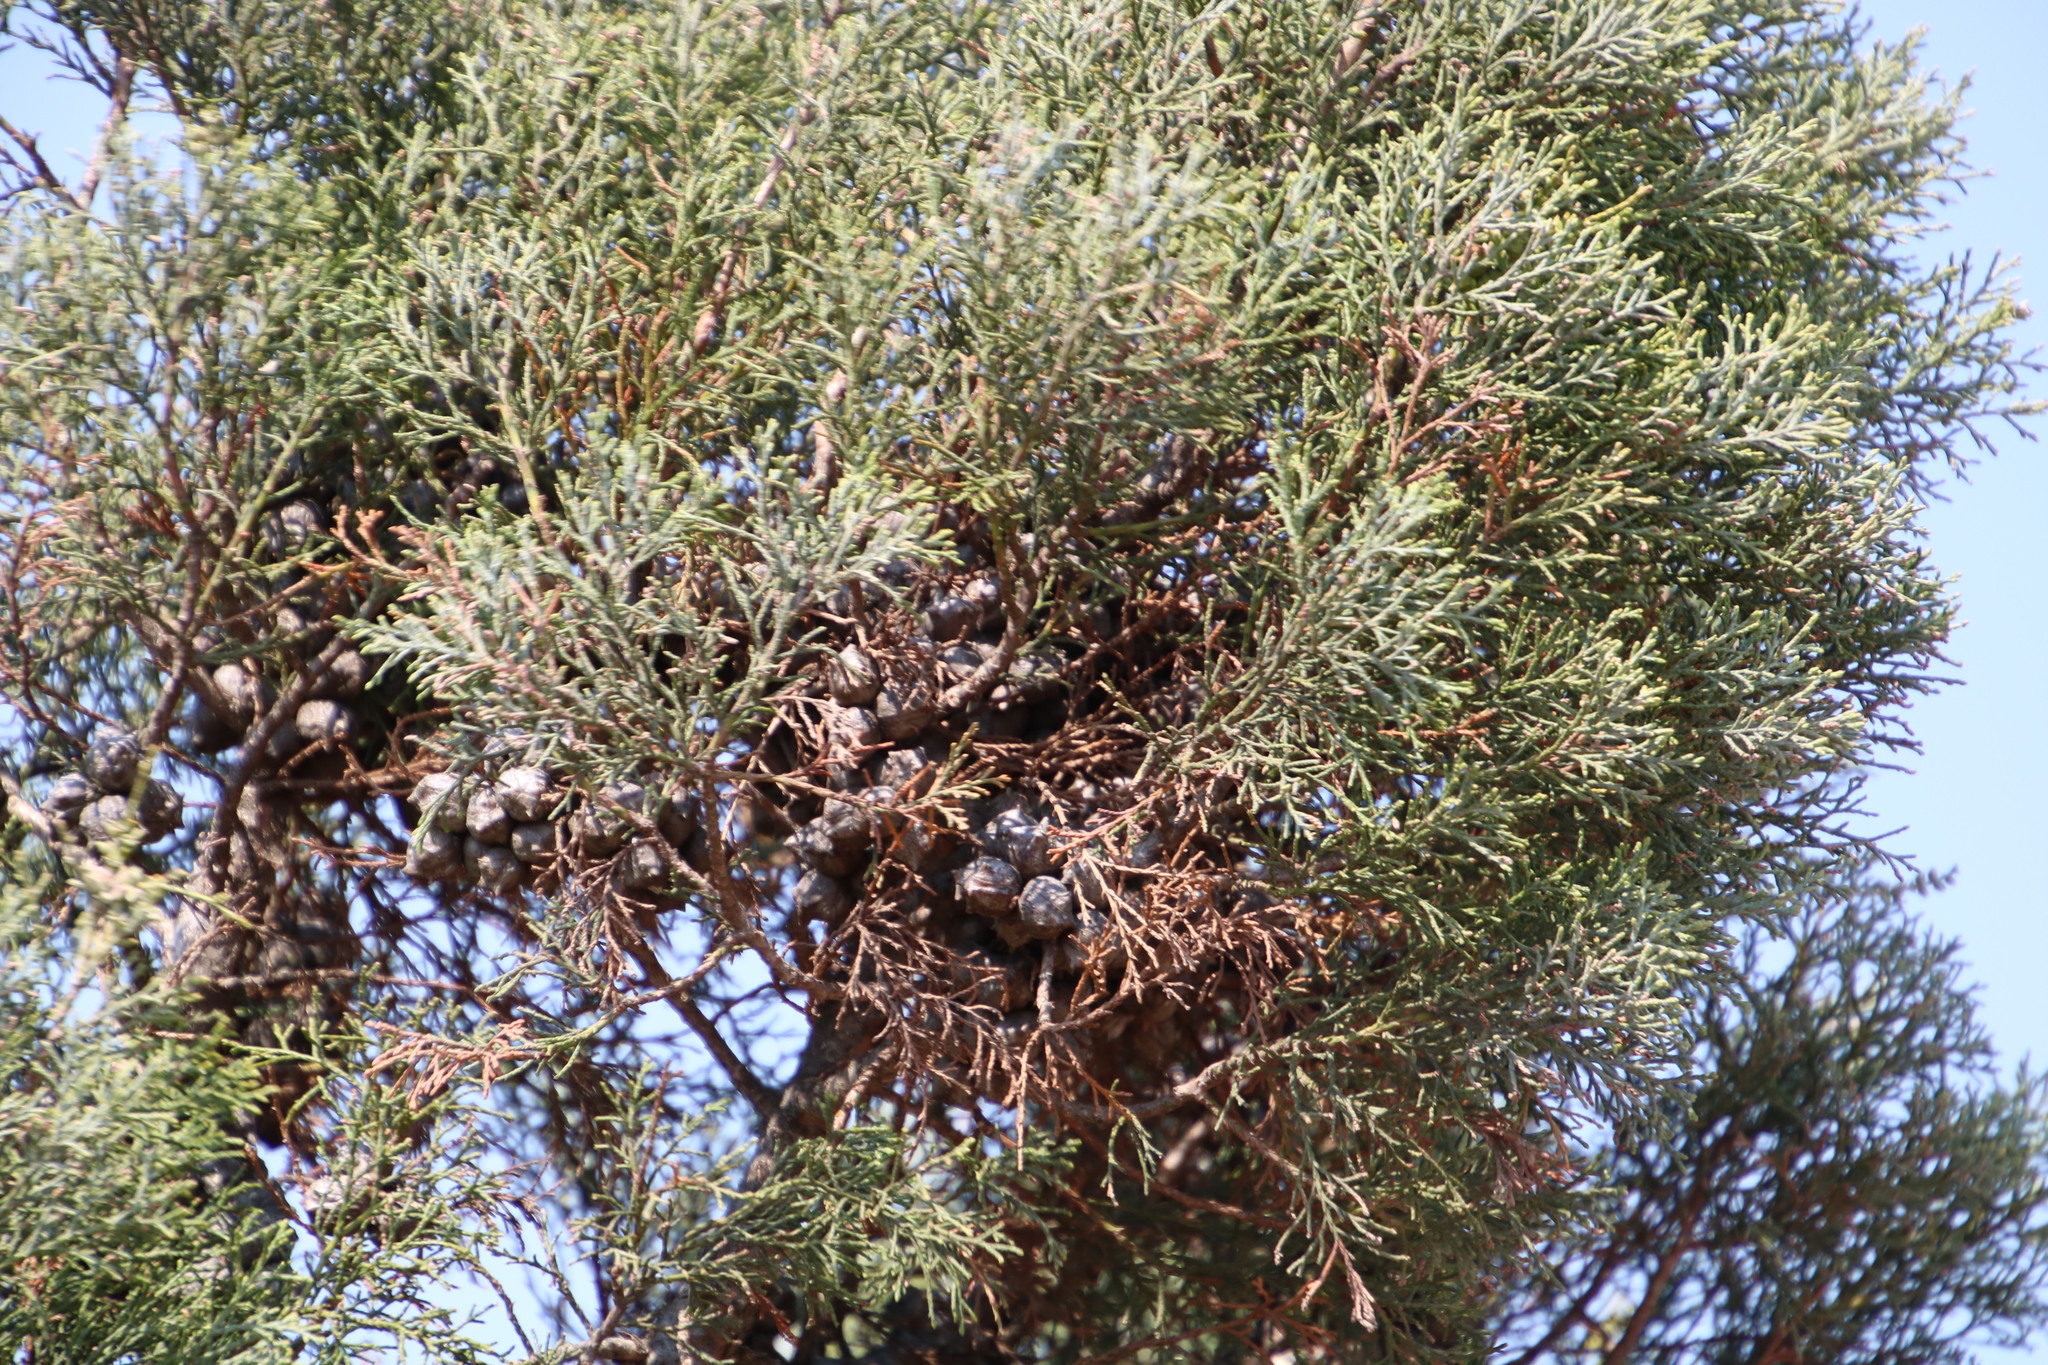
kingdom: Plantae
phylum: Tracheophyta
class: Pinopsida
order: Pinales
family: Cupressaceae
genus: Widdringtonia
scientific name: Widdringtonia nodiflora
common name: Cape cypress
